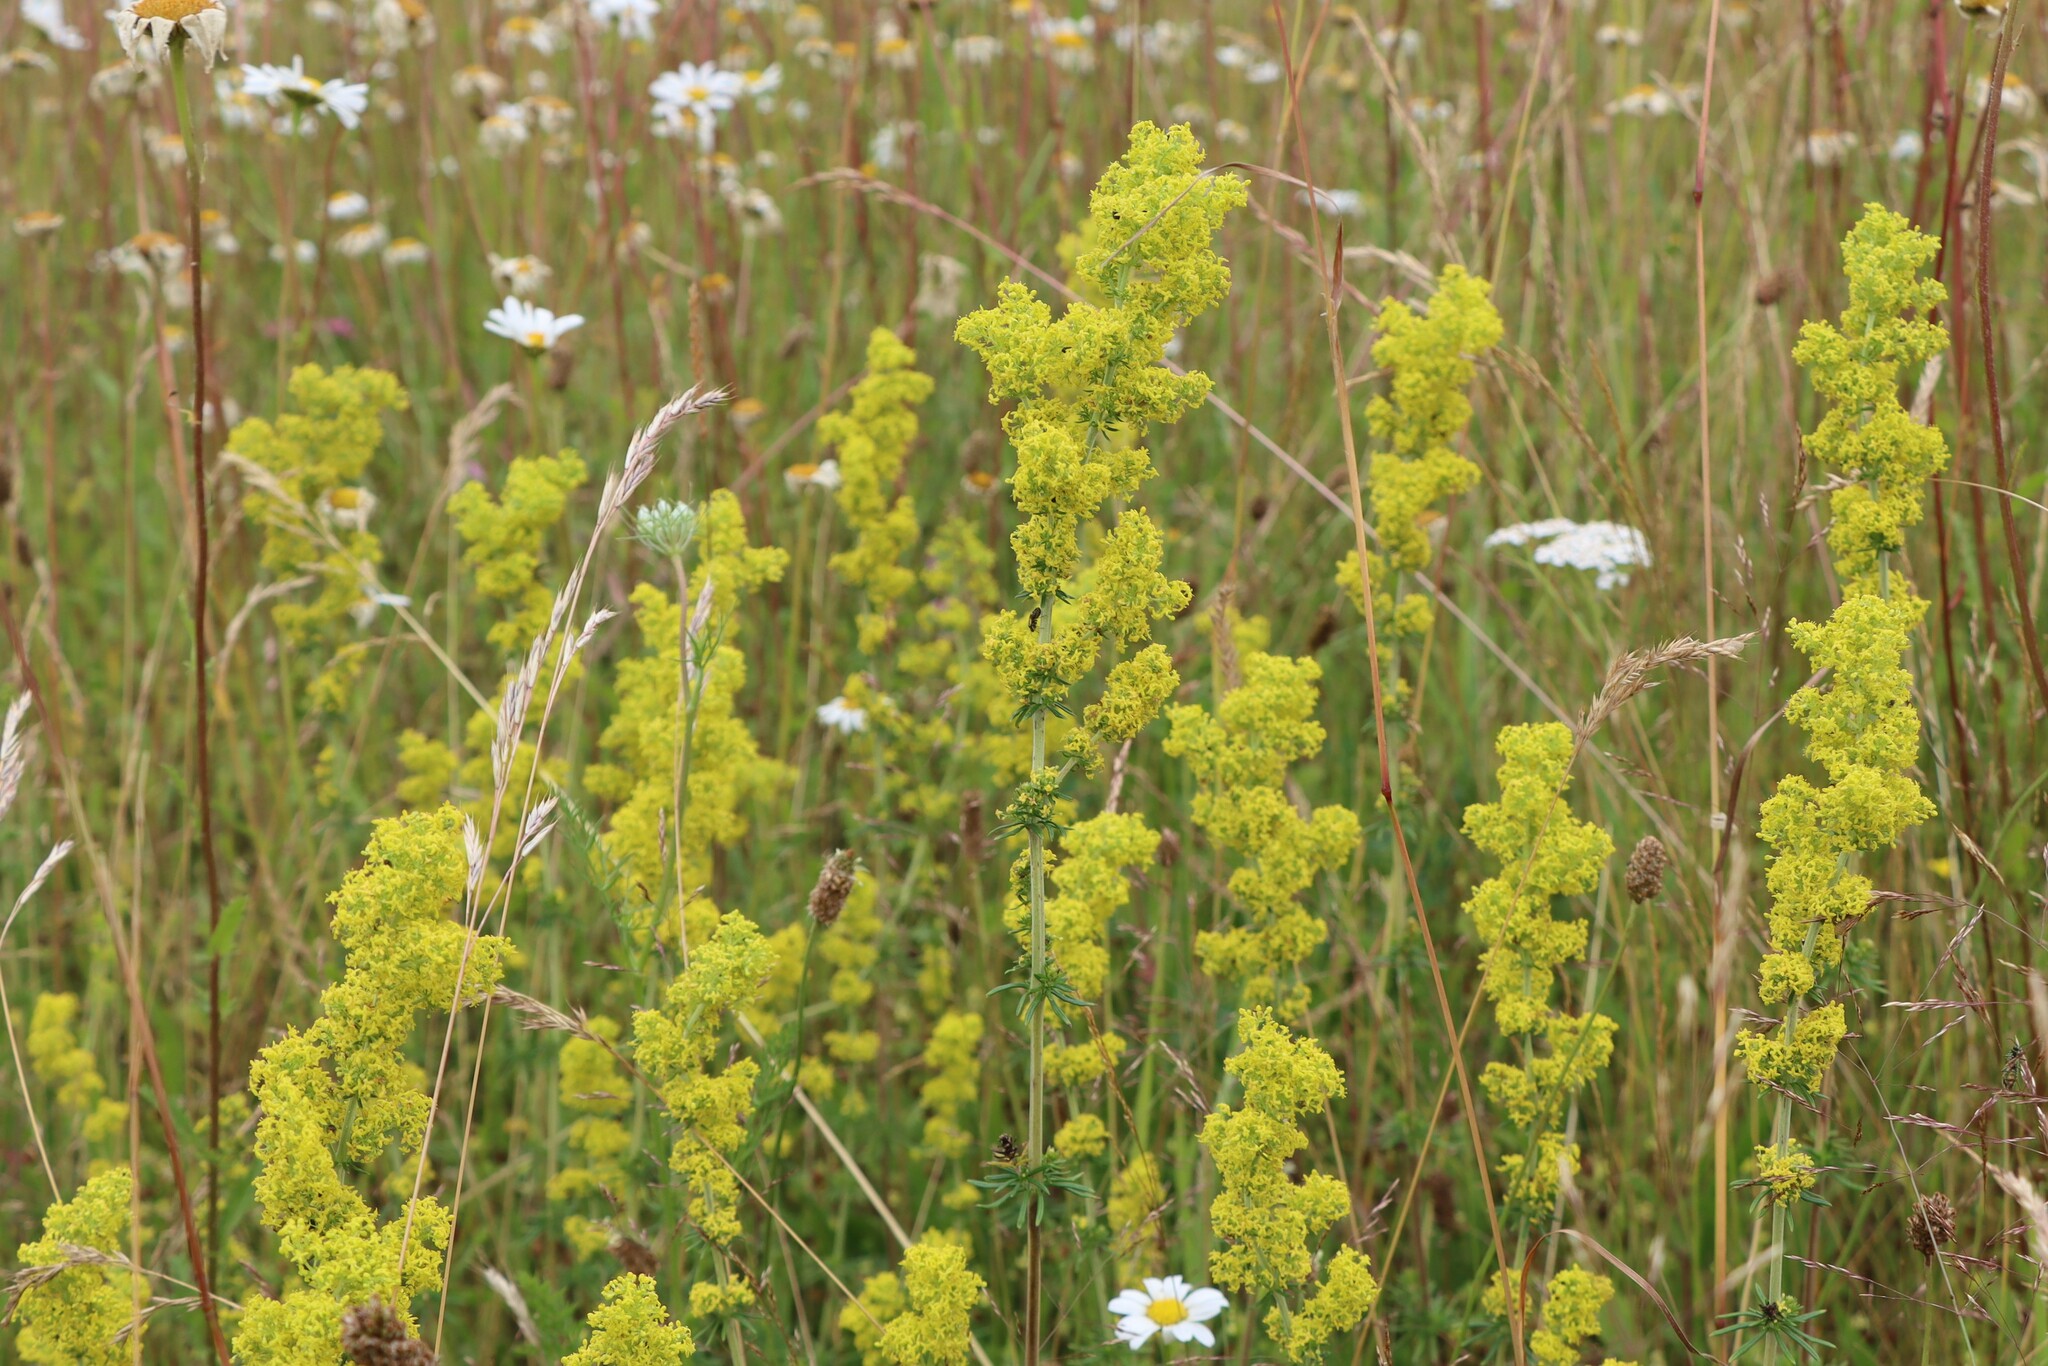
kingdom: Plantae
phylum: Tracheophyta
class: Magnoliopsida
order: Gentianales
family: Rubiaceae
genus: Galium
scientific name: Galium verum
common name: Lady's bedstraw
